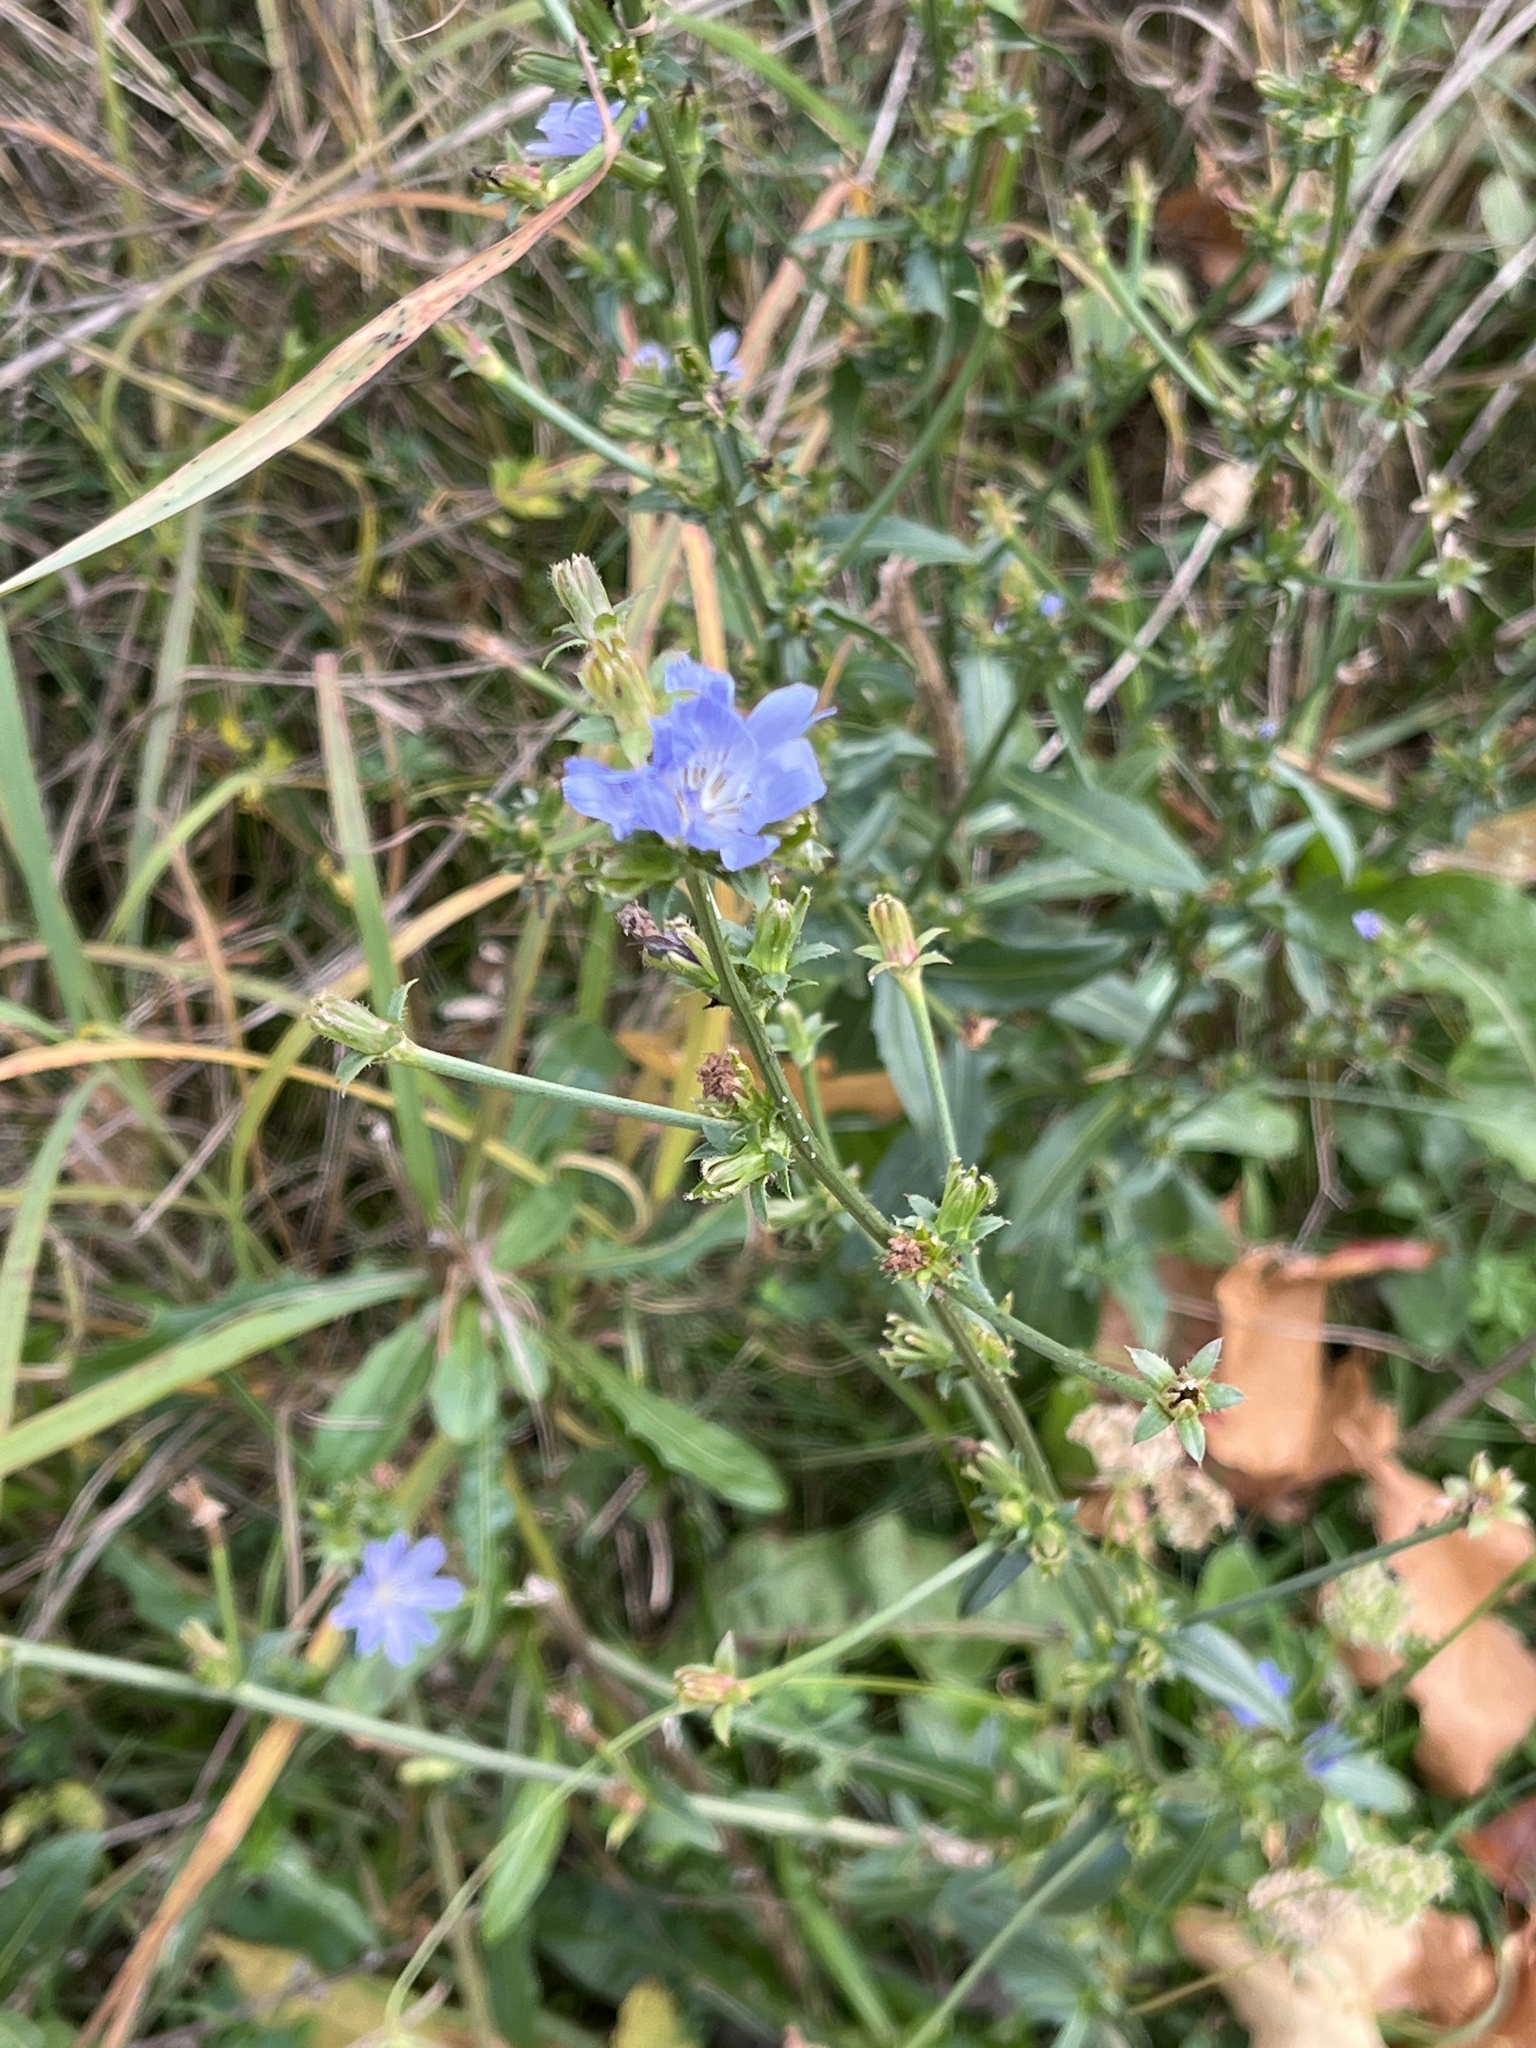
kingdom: Plantae
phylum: Tracheophyta
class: Magnoliopsida
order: Asterales
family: Asteraceae
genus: Cichorium
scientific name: Cichorium intybus
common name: Chicory
